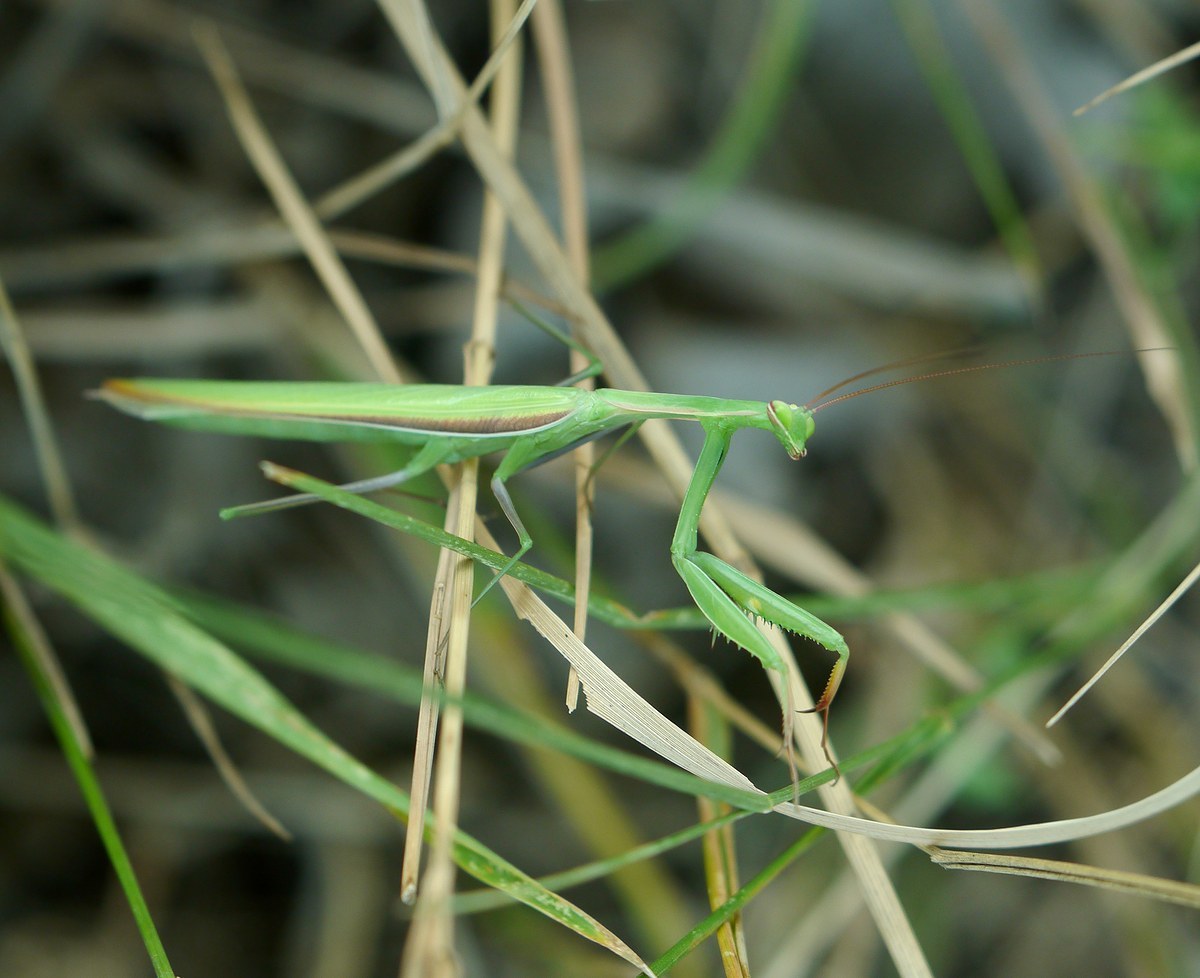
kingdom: Animalia
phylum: Arthropoda
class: Insecta
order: Mantodea
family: Mantidae
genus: Mantis
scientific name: Mantis religiosa
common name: Praying mantis
